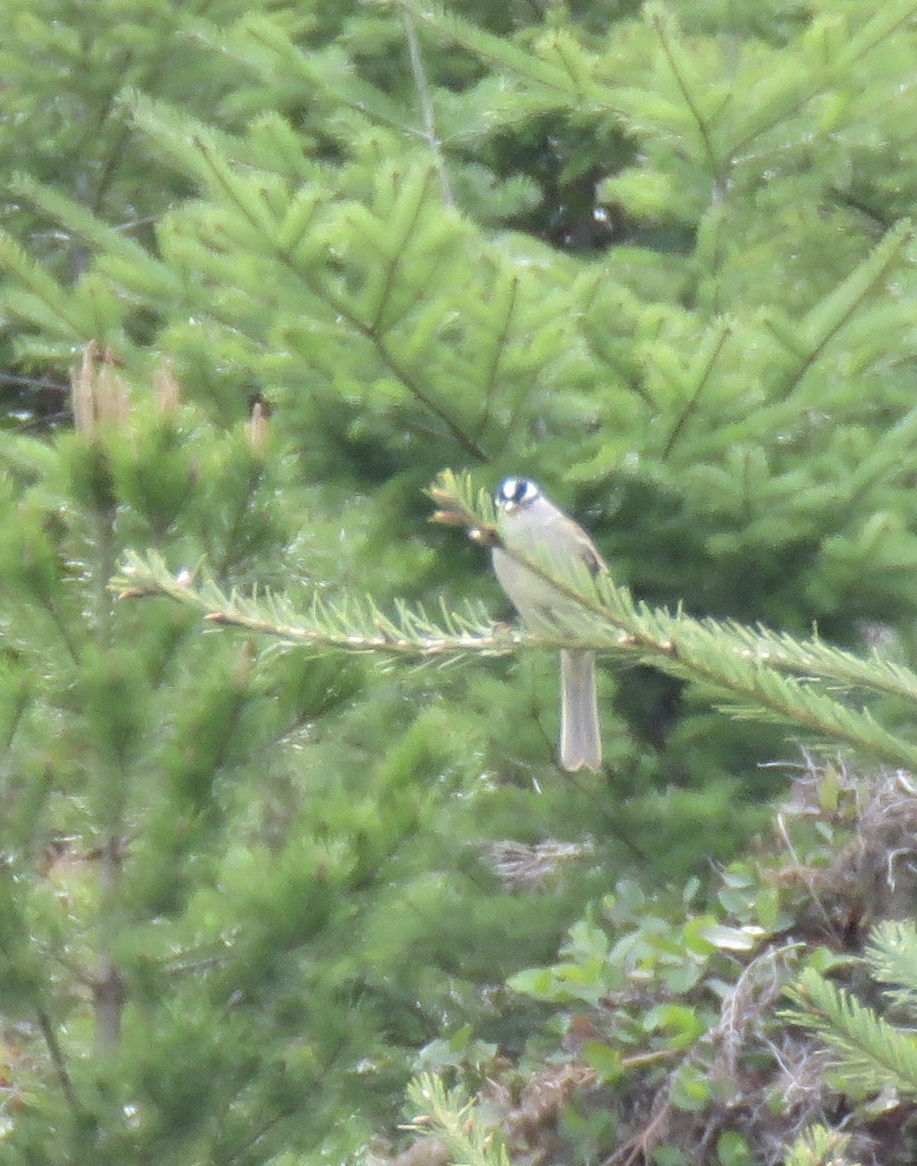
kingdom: Animalia
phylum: Chordata
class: Aves
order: Passeriformes
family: Passerellidae
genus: Zonotrichia
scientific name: Zonotrichia leucophrys
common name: White-crowned sparrow
